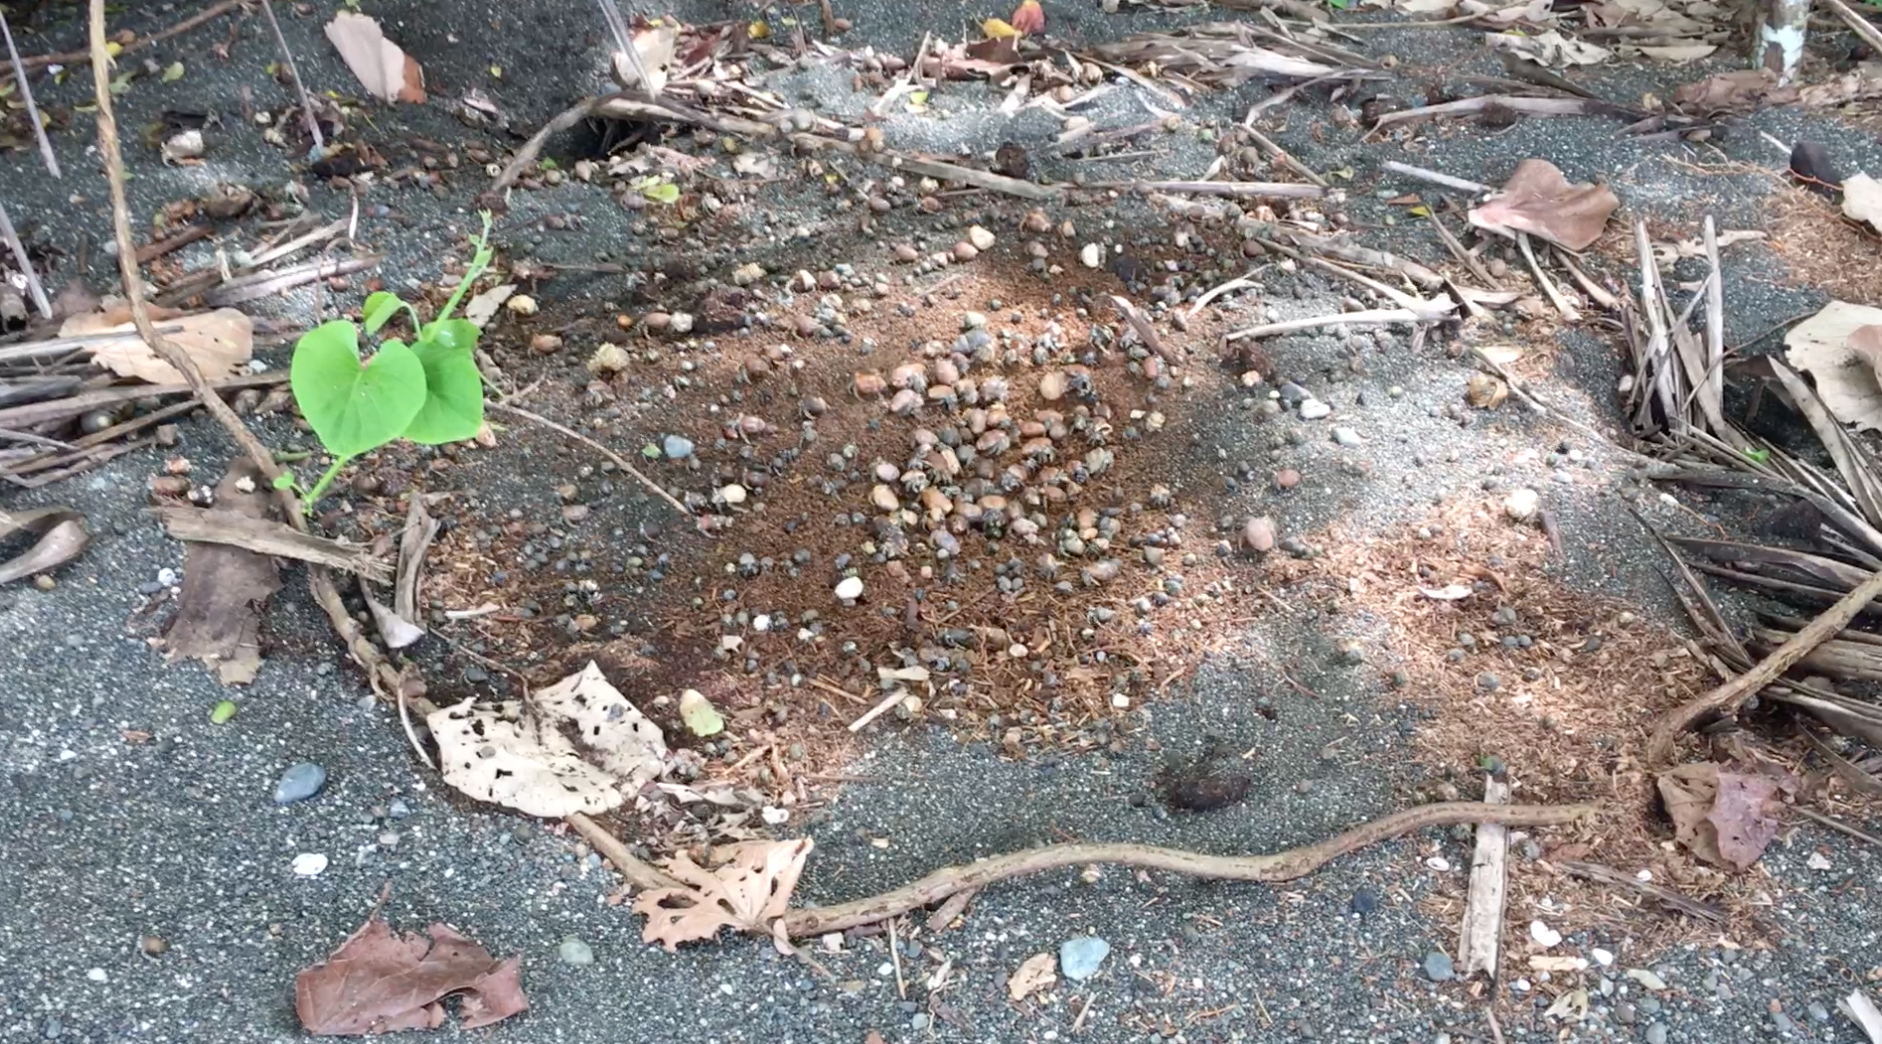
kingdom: Animalia
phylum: Arthropoda
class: Malacostraca
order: Decapoda
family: Coenobitidae
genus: Coenobita
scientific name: Coenobita compressus
